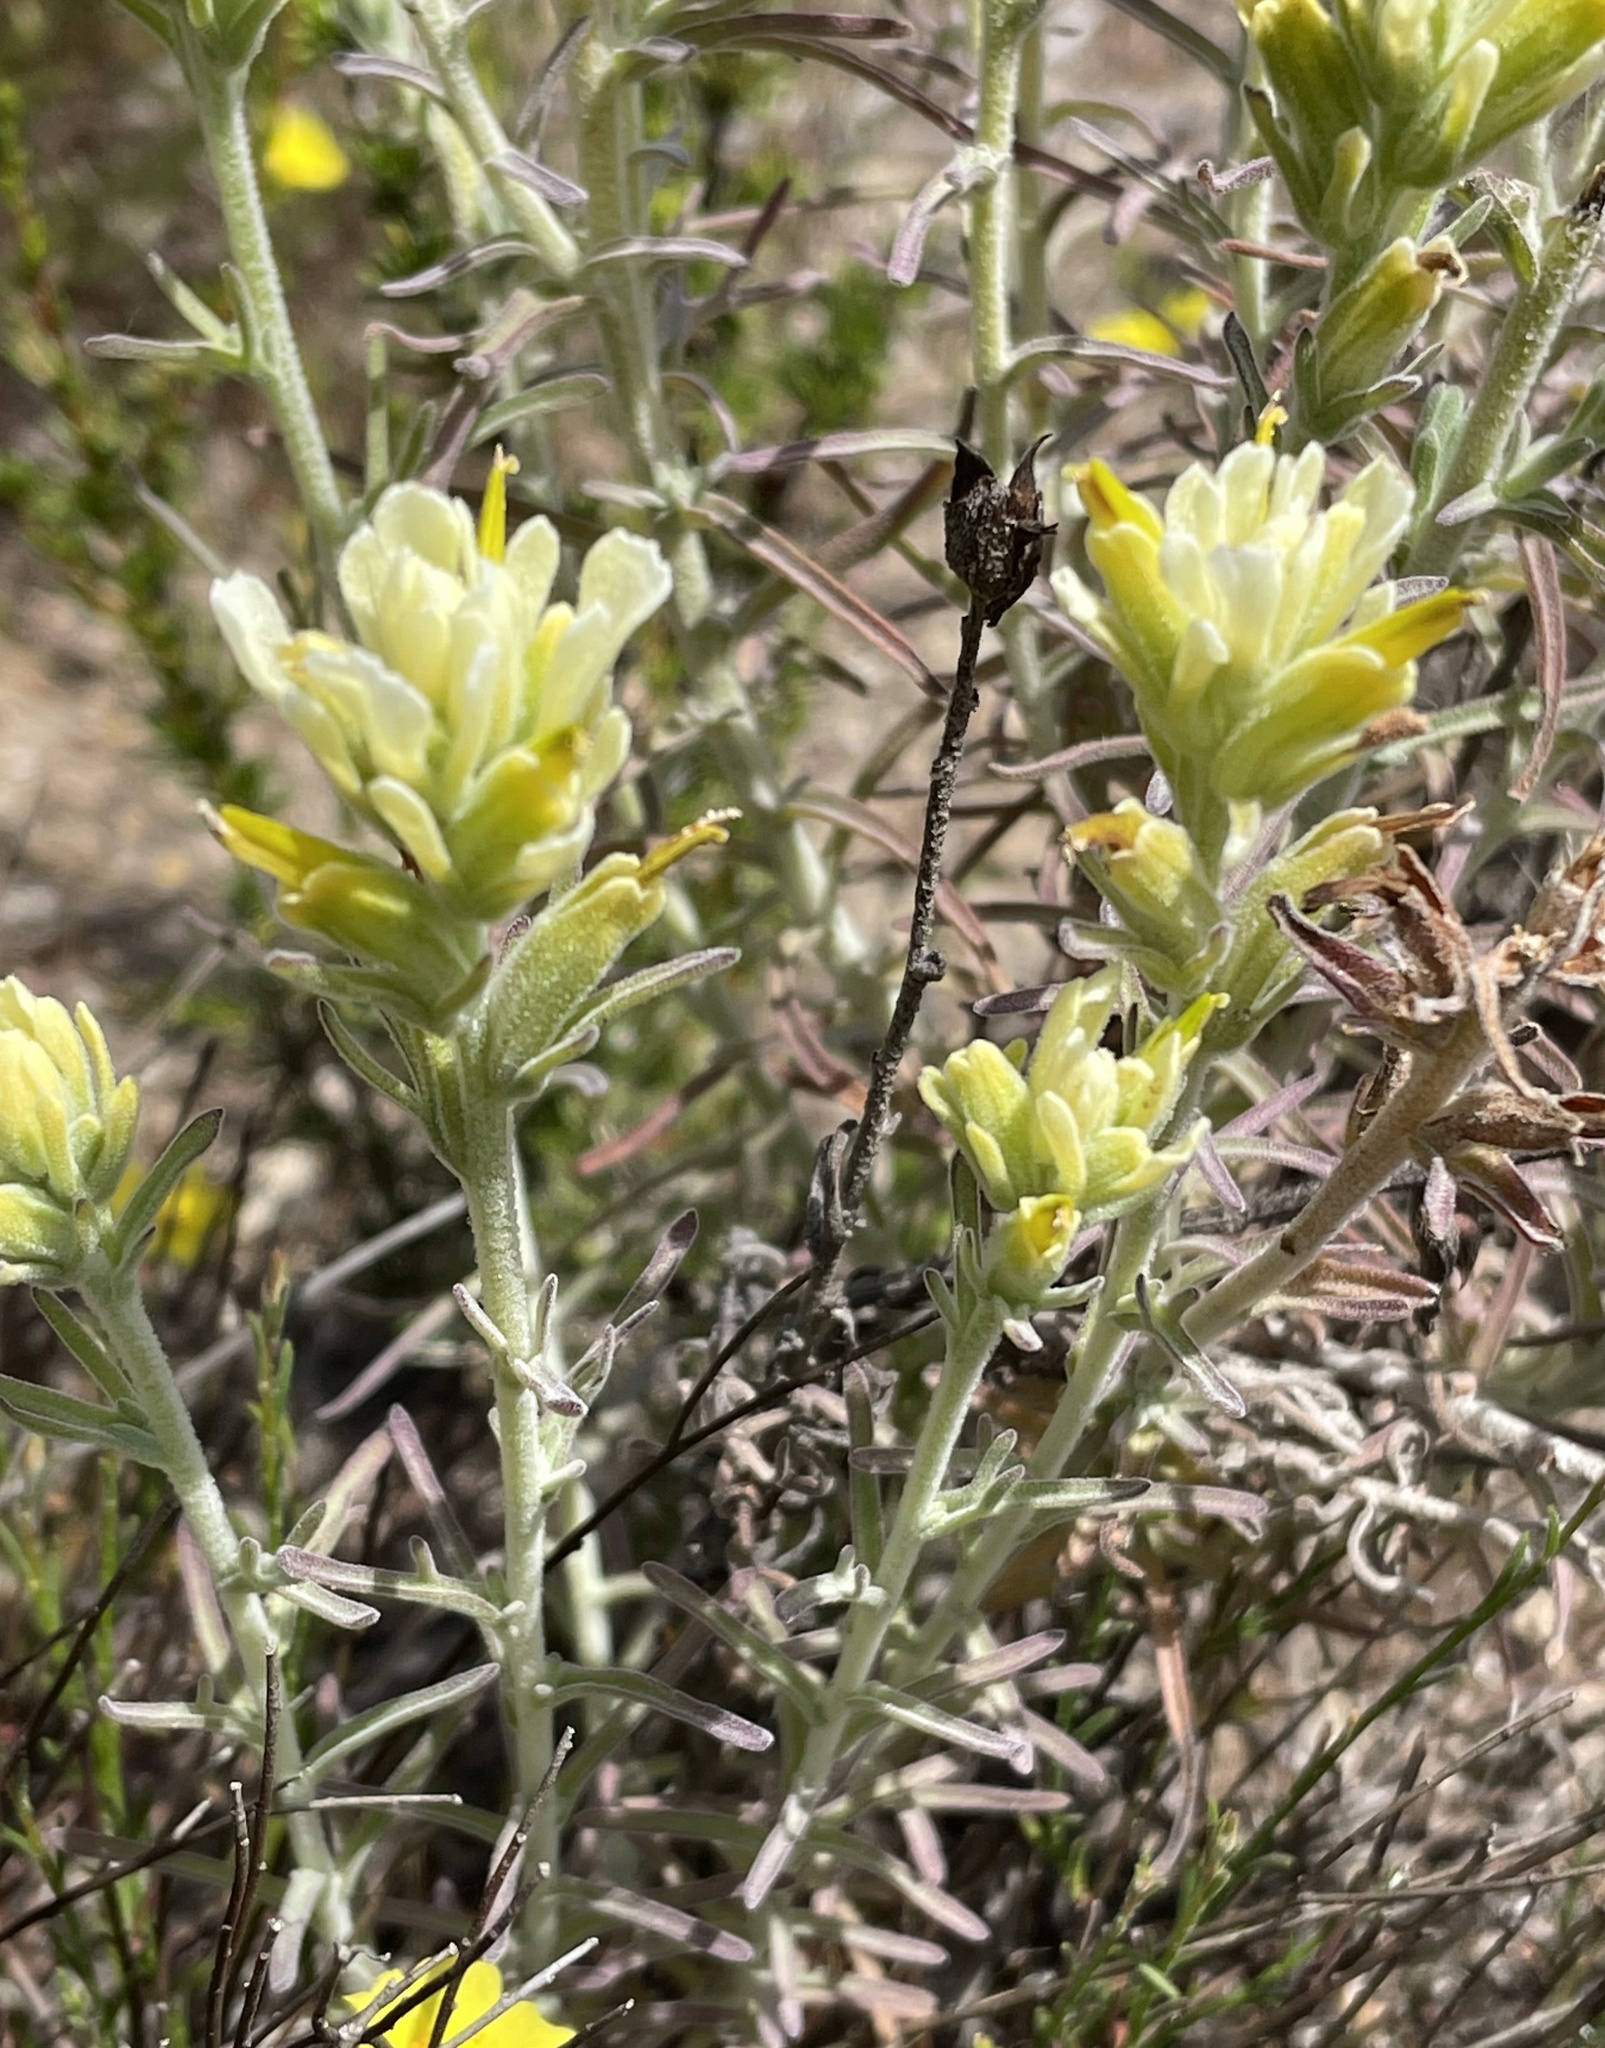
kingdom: Plantae
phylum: Tracheophyta
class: Magnoliopsida
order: Lamiales
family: Orobanchaceae
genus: Castilleja
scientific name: Castilleja foliolosa
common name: Woolly indian paintbrush
